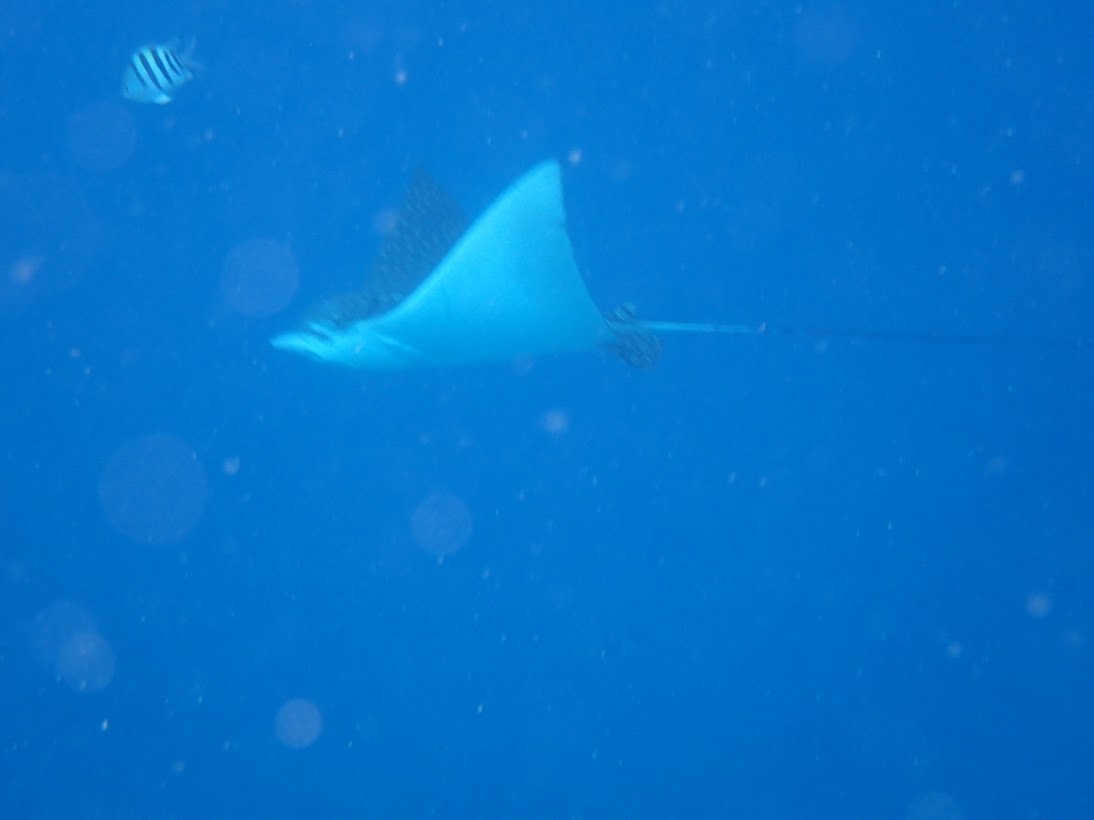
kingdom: Animalia
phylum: Chordata
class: Elasmobranchii
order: Myliobatiformes
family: Myliobatidae
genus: Aetobatus
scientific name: Aetobatus narinari
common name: Spotted eagle ray
